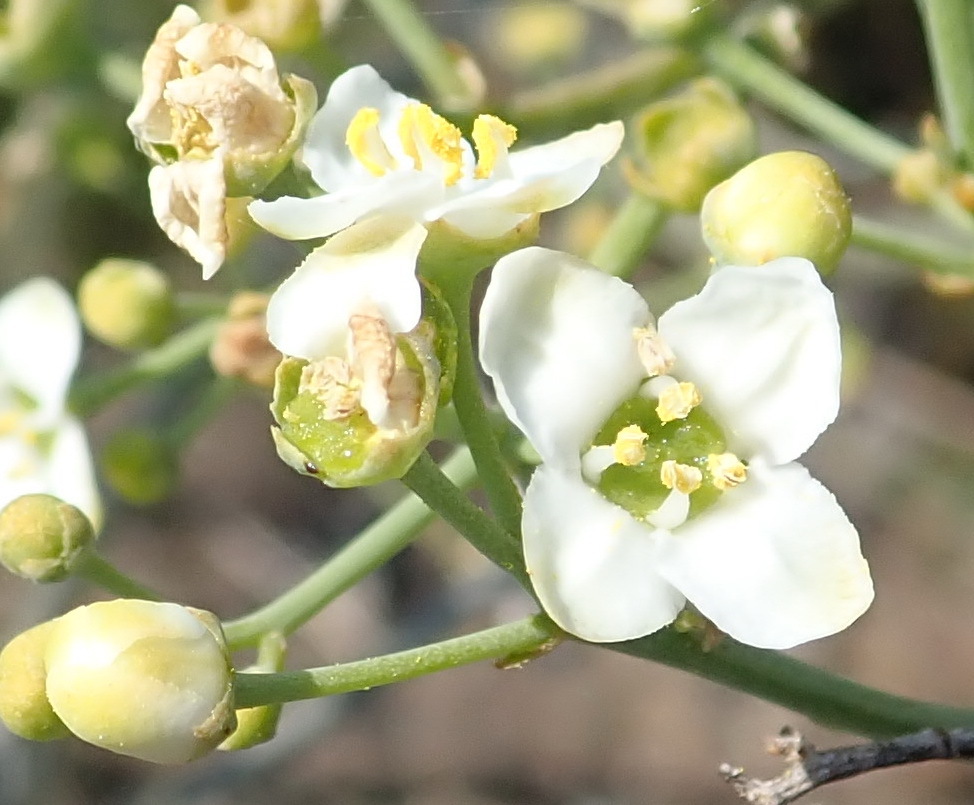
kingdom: Plantae
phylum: Tracheophyta
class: Magnoliopsida
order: Solanales
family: Montiniaceae
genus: Montinia
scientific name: Montinia caryophyllacea
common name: Wild clove-bush
